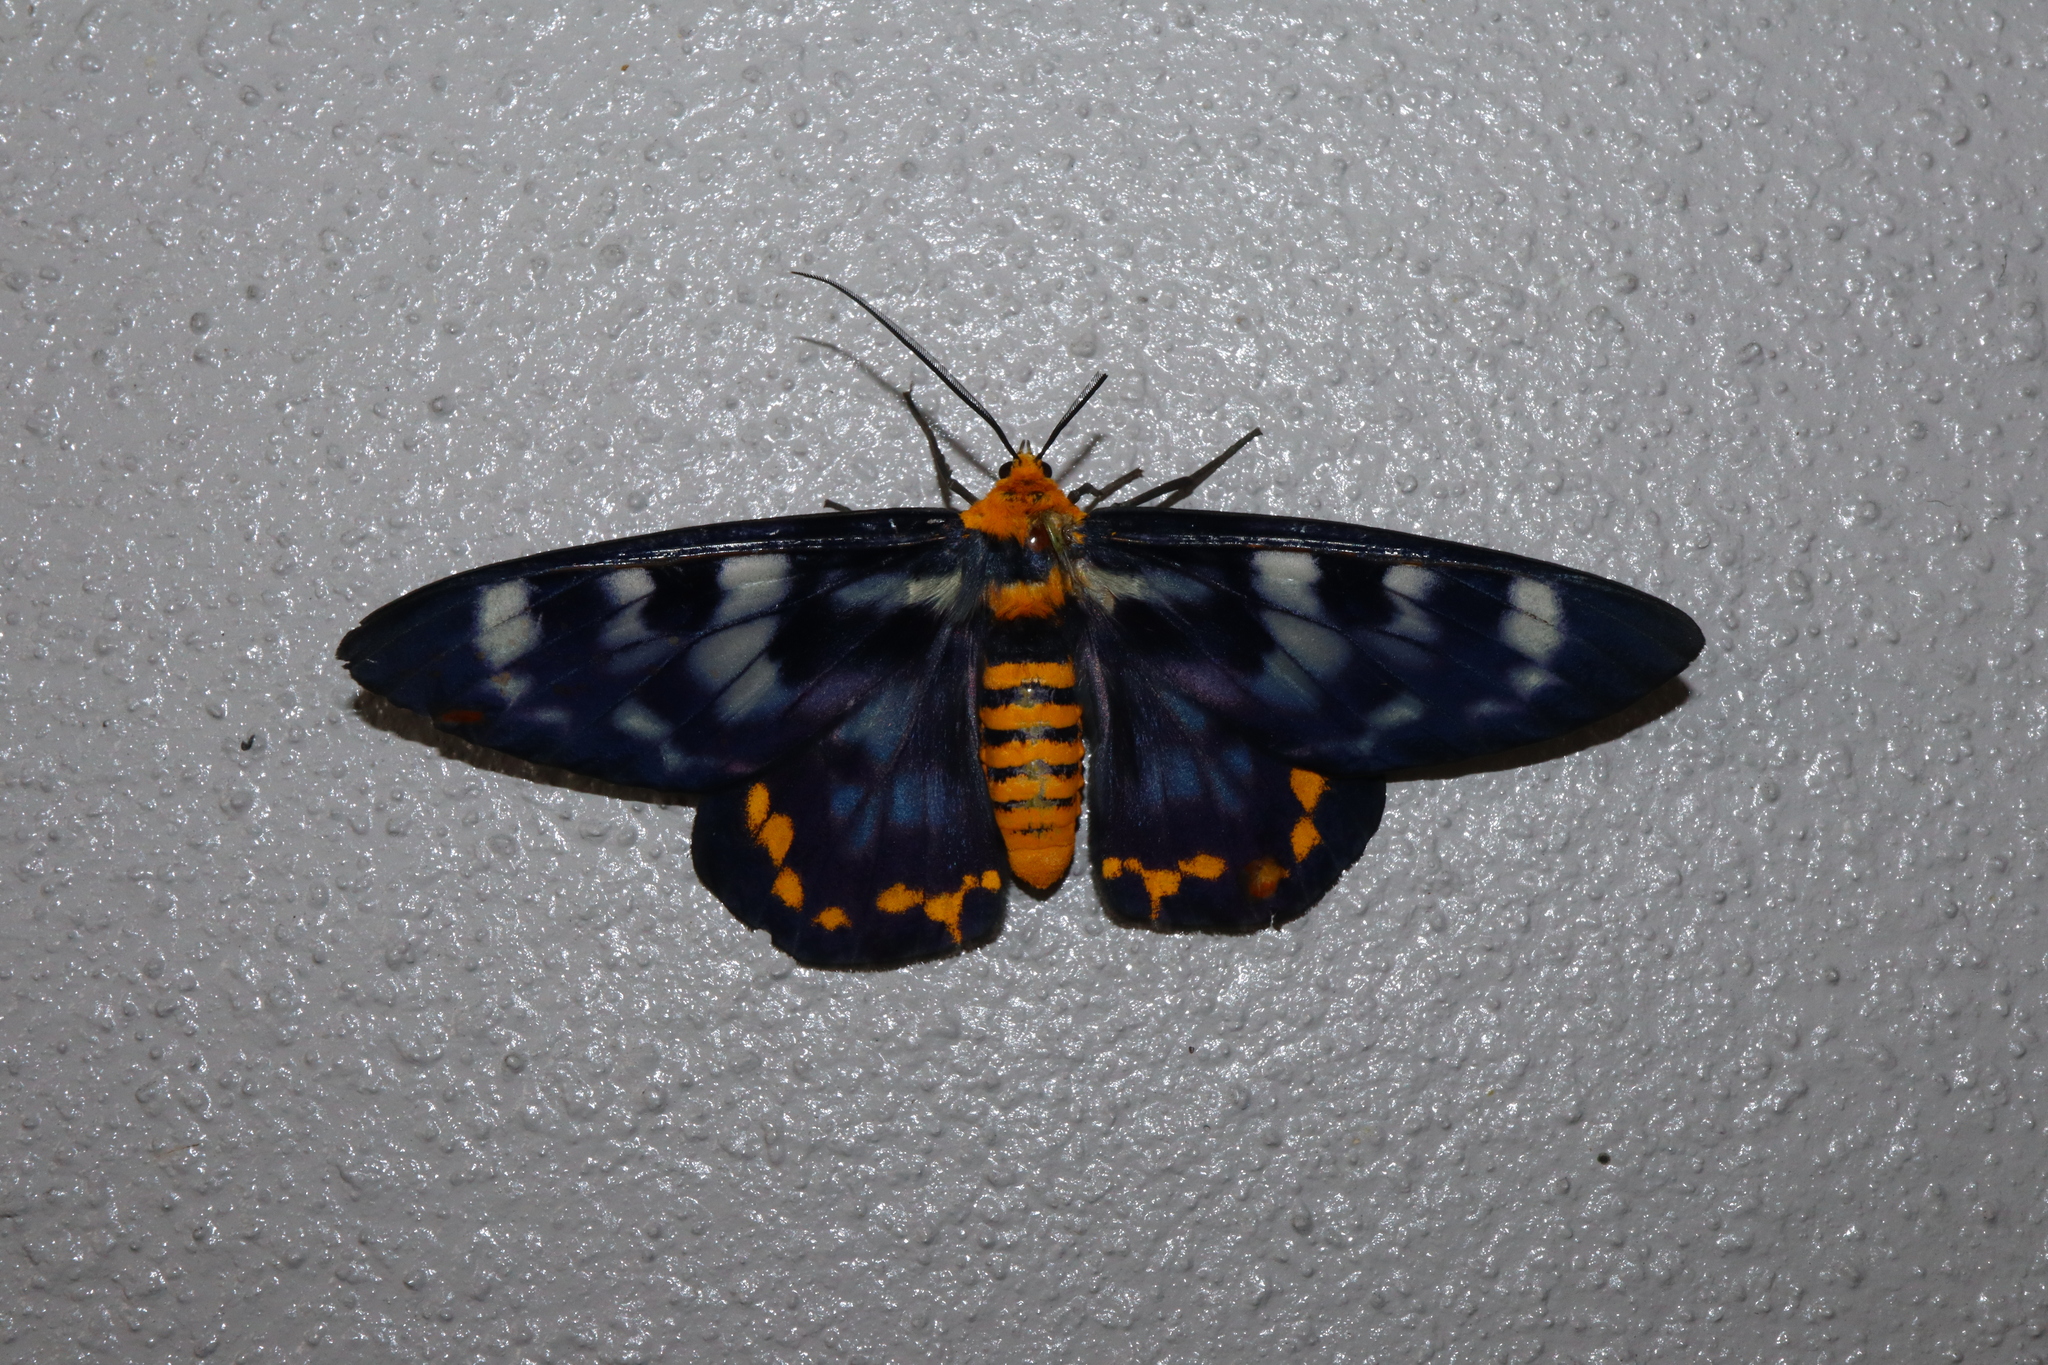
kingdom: Animalia
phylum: Arthropoda
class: Insecta
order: Lepidoptera
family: Geometridae
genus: Dysphania
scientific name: Dysphania numana
